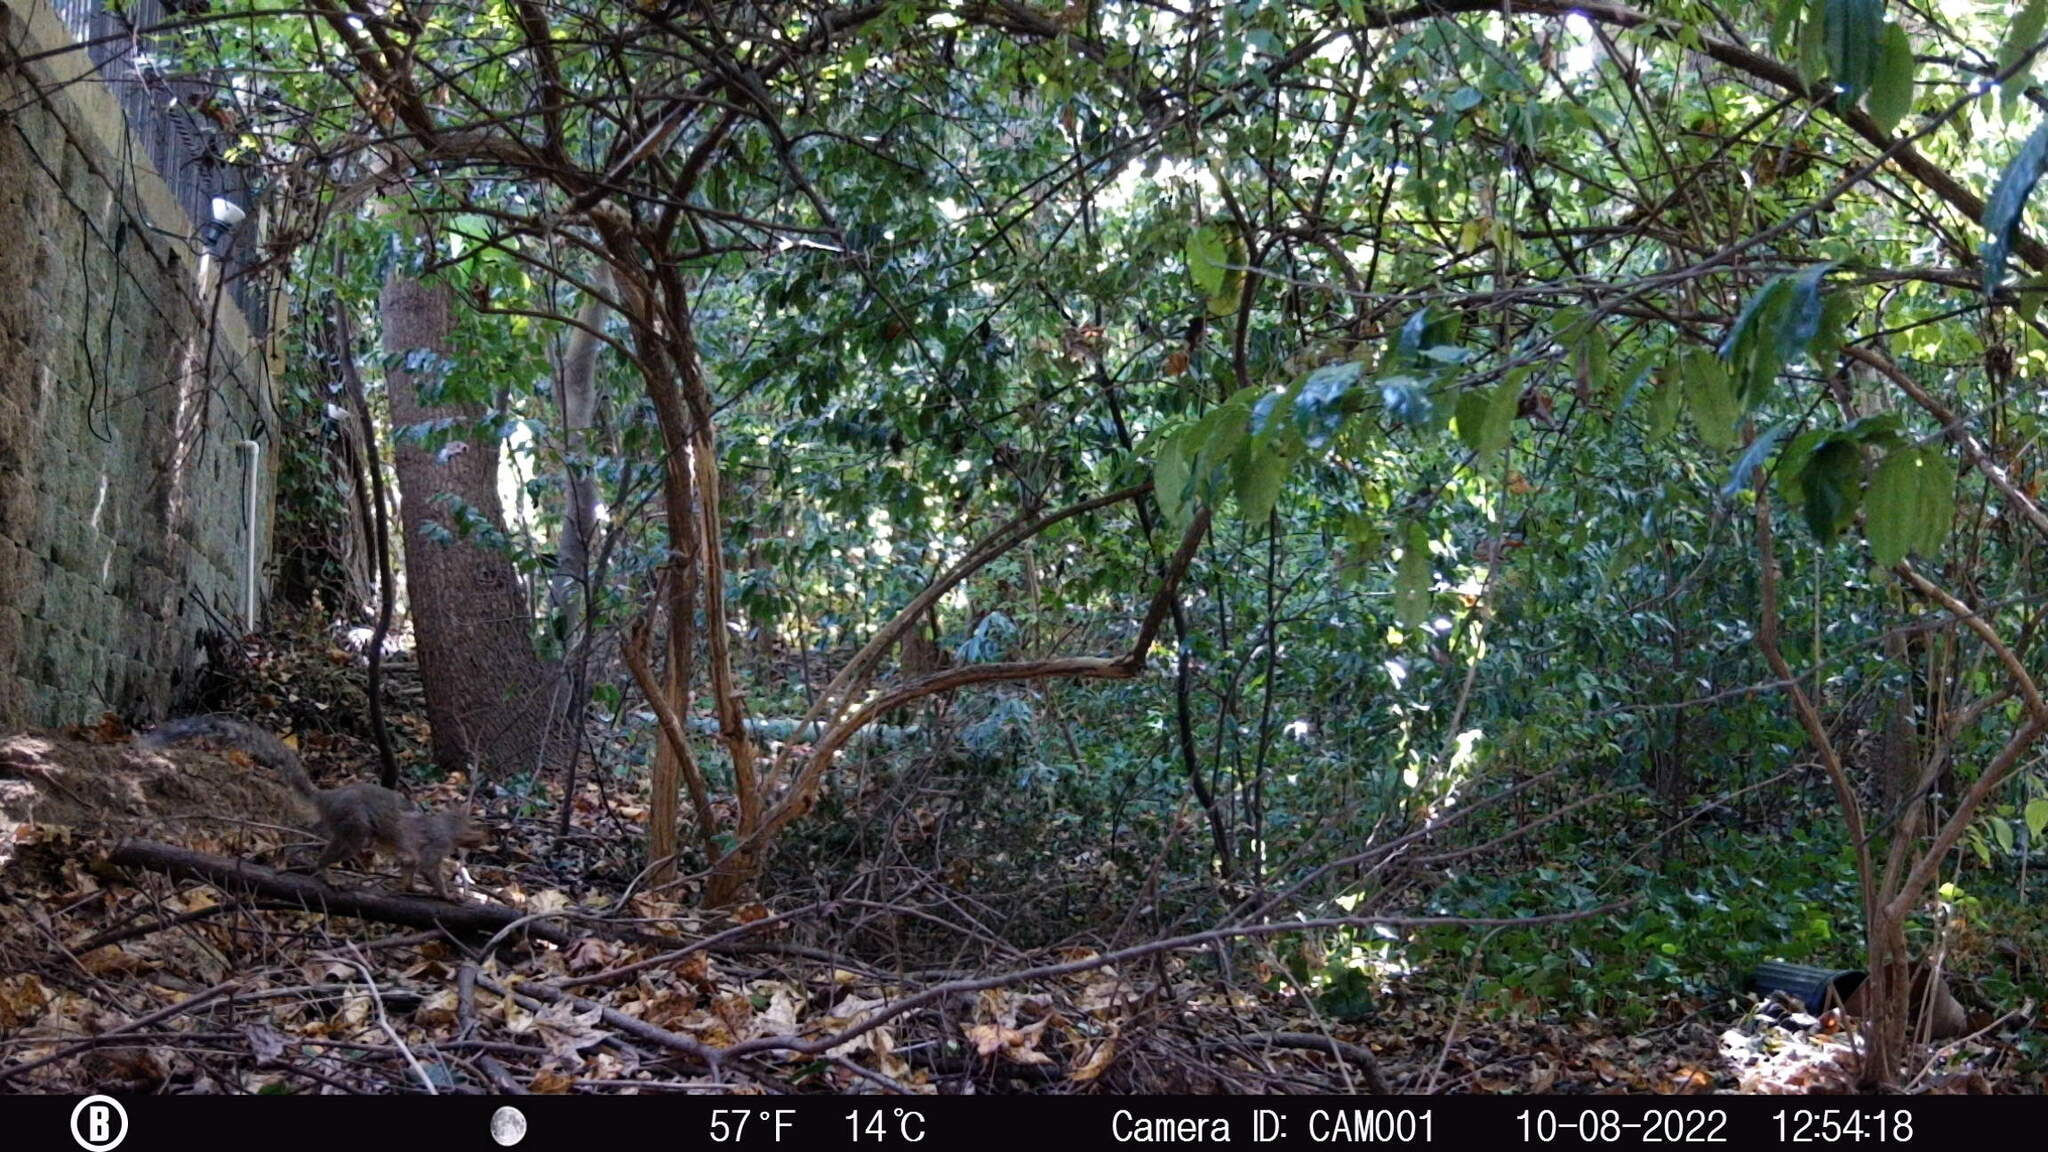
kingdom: Animalia
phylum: Chordata
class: Mammalia
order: Rodentia
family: Sciuridae
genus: Sciurus
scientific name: Sciurus carolinensis
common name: Eastern gray squirrel
